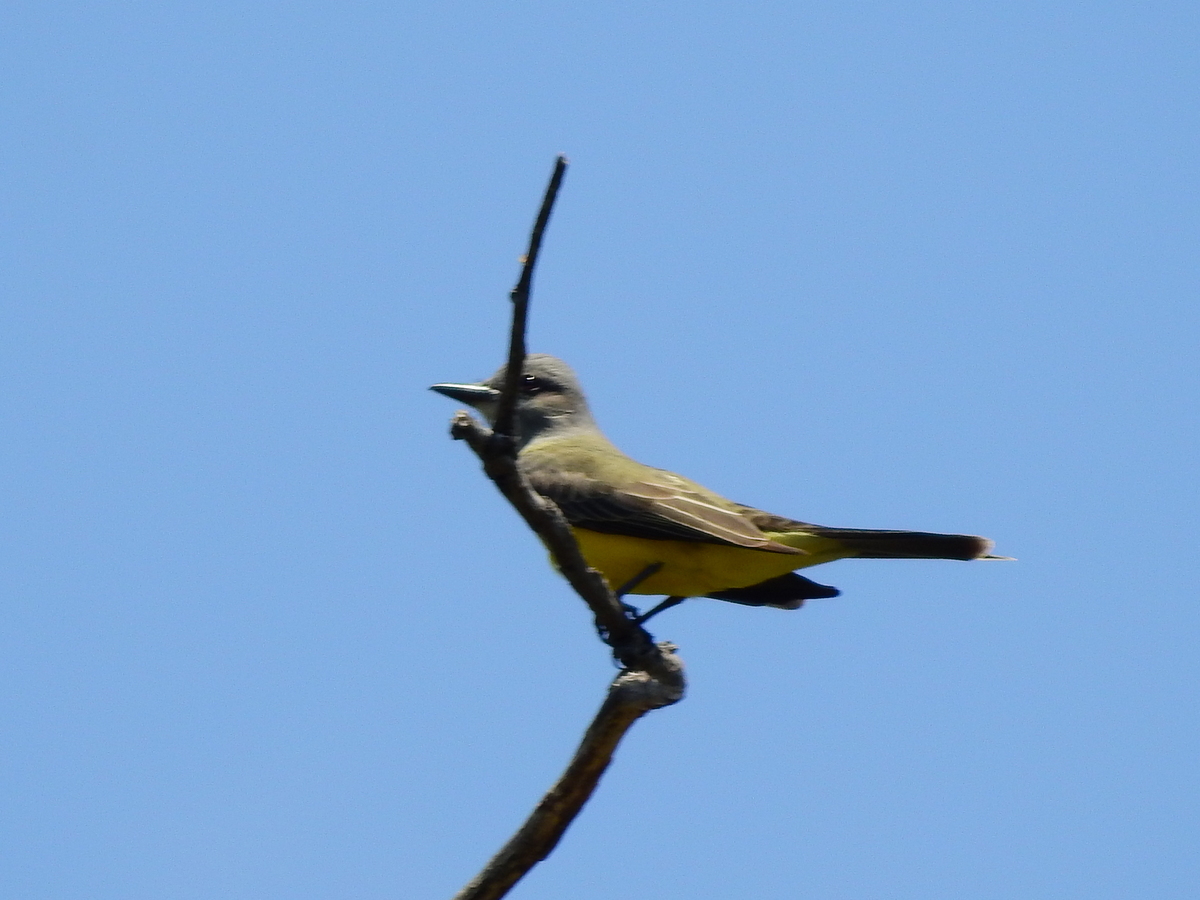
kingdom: Animalia
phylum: Chordata
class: Aves
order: Passeriformes
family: Tyrannidae
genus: Tyrannus
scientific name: Tyrannus melancholicus
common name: Tropical kingbird
